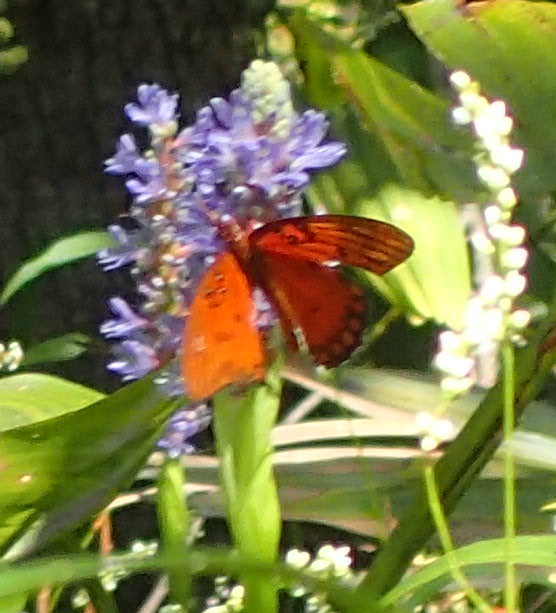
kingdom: Animalia
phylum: Arthropoda
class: Insecta
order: Lepidoptera
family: Nymphalidae
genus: Dione
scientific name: Dione vanillae
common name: Gulf fritillary
